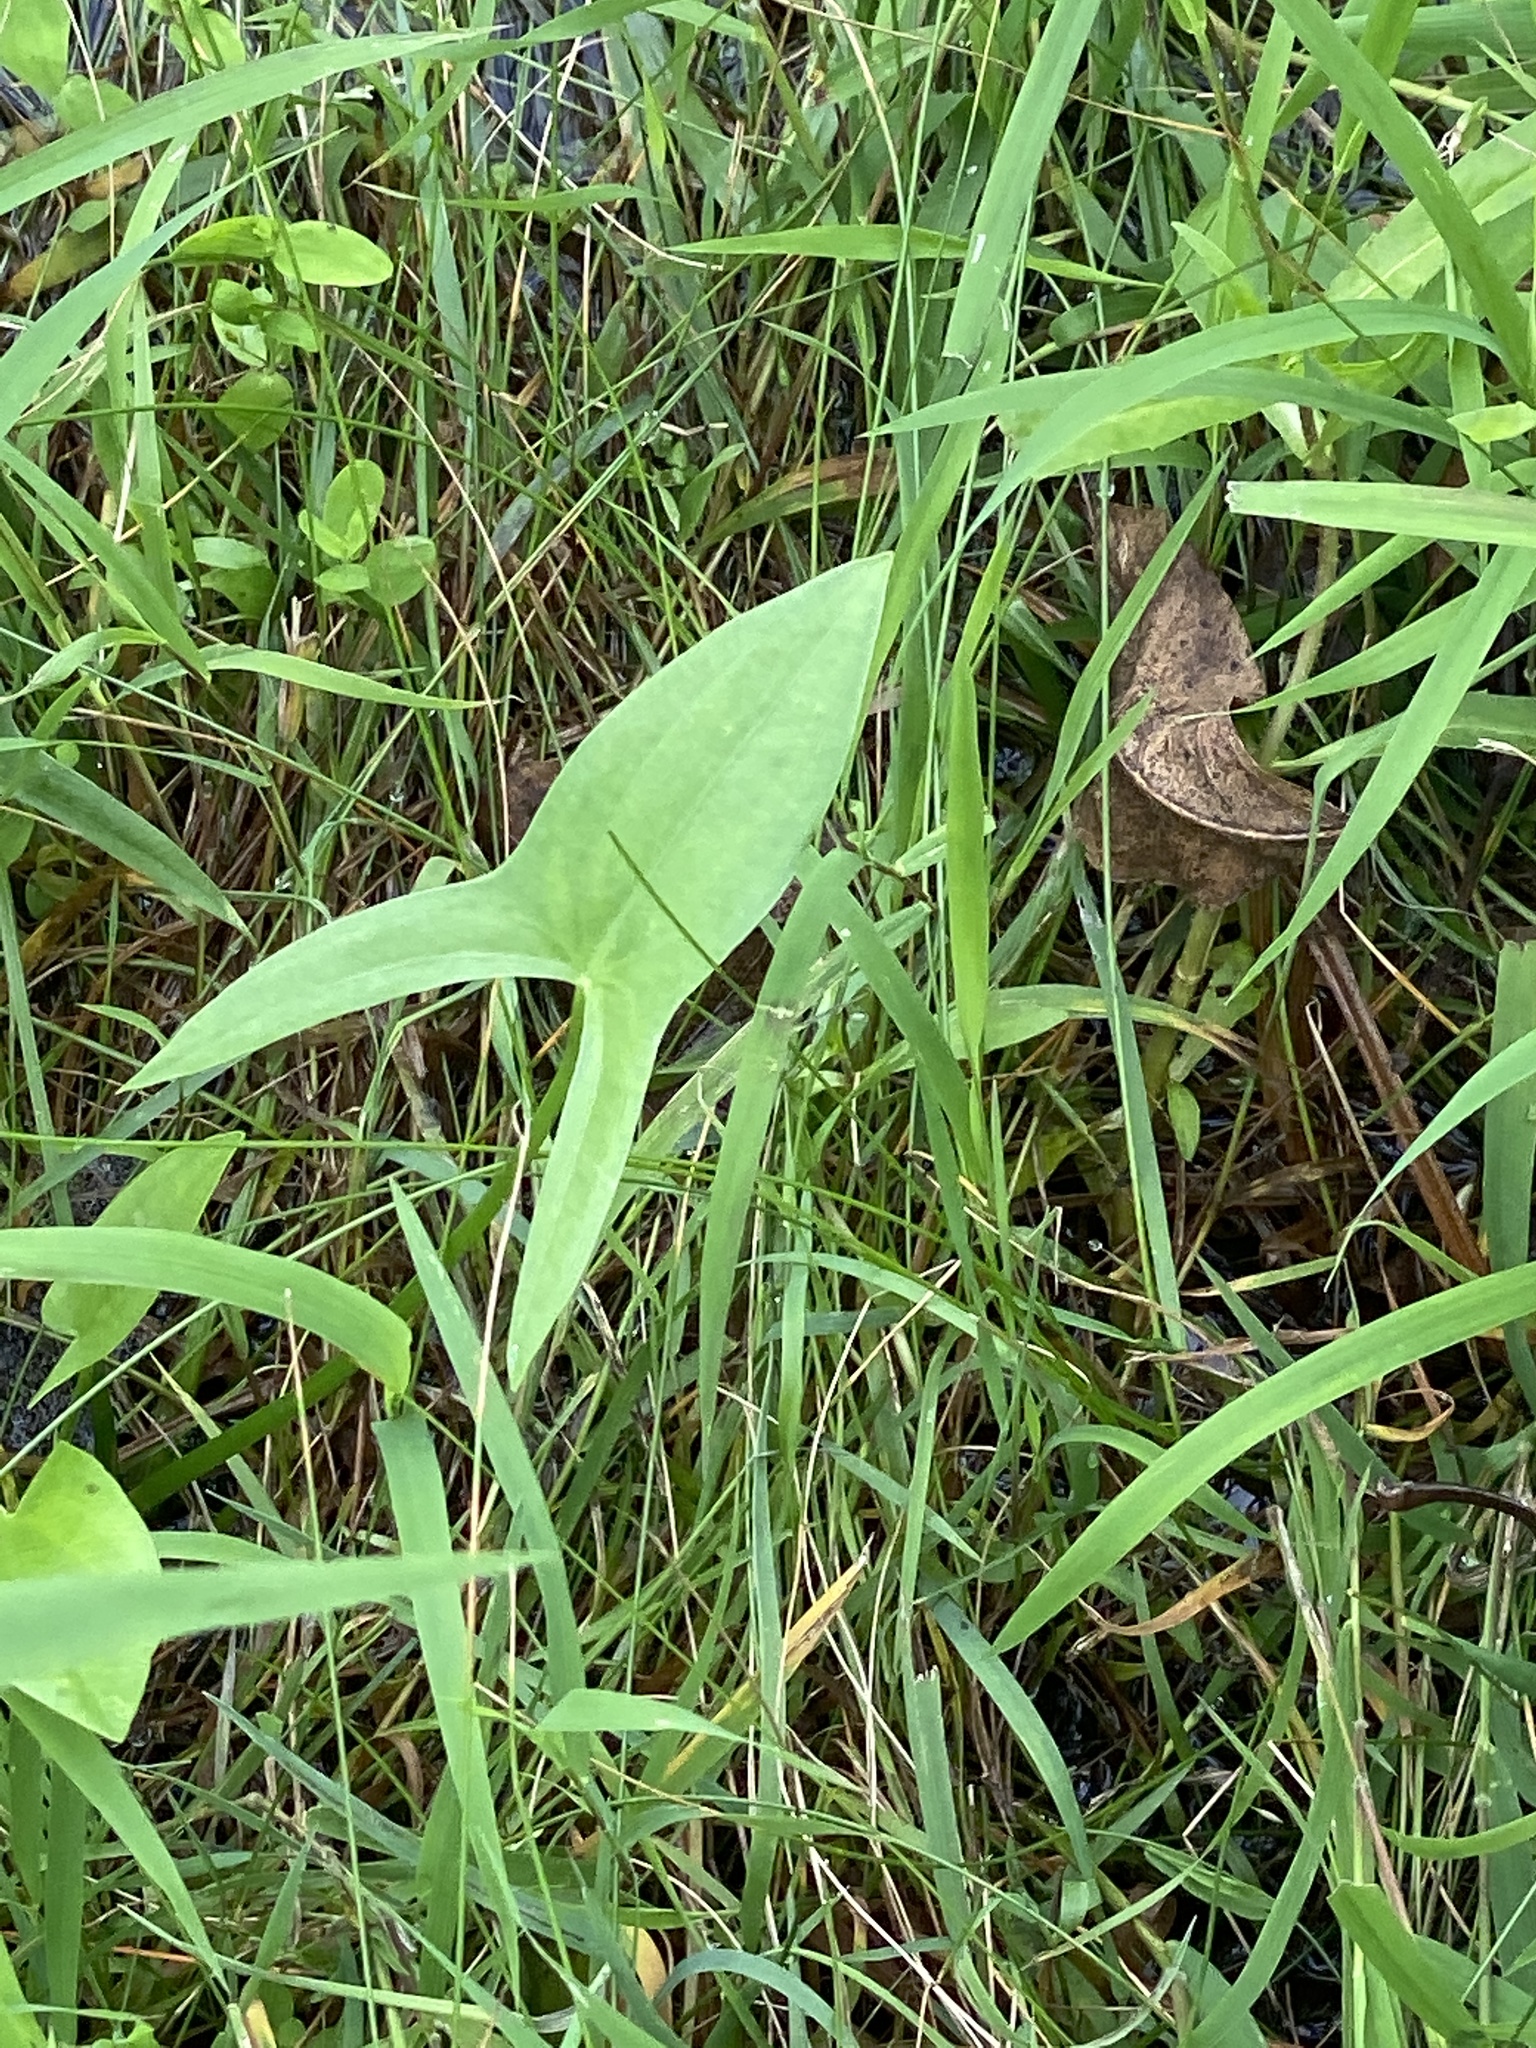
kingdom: Plantae
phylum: Tracheophyta
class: Liliopsida
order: Alismatales
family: Alismataceae
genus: Sagittaria
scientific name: Sagittaria latifolia
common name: Duck-potato
